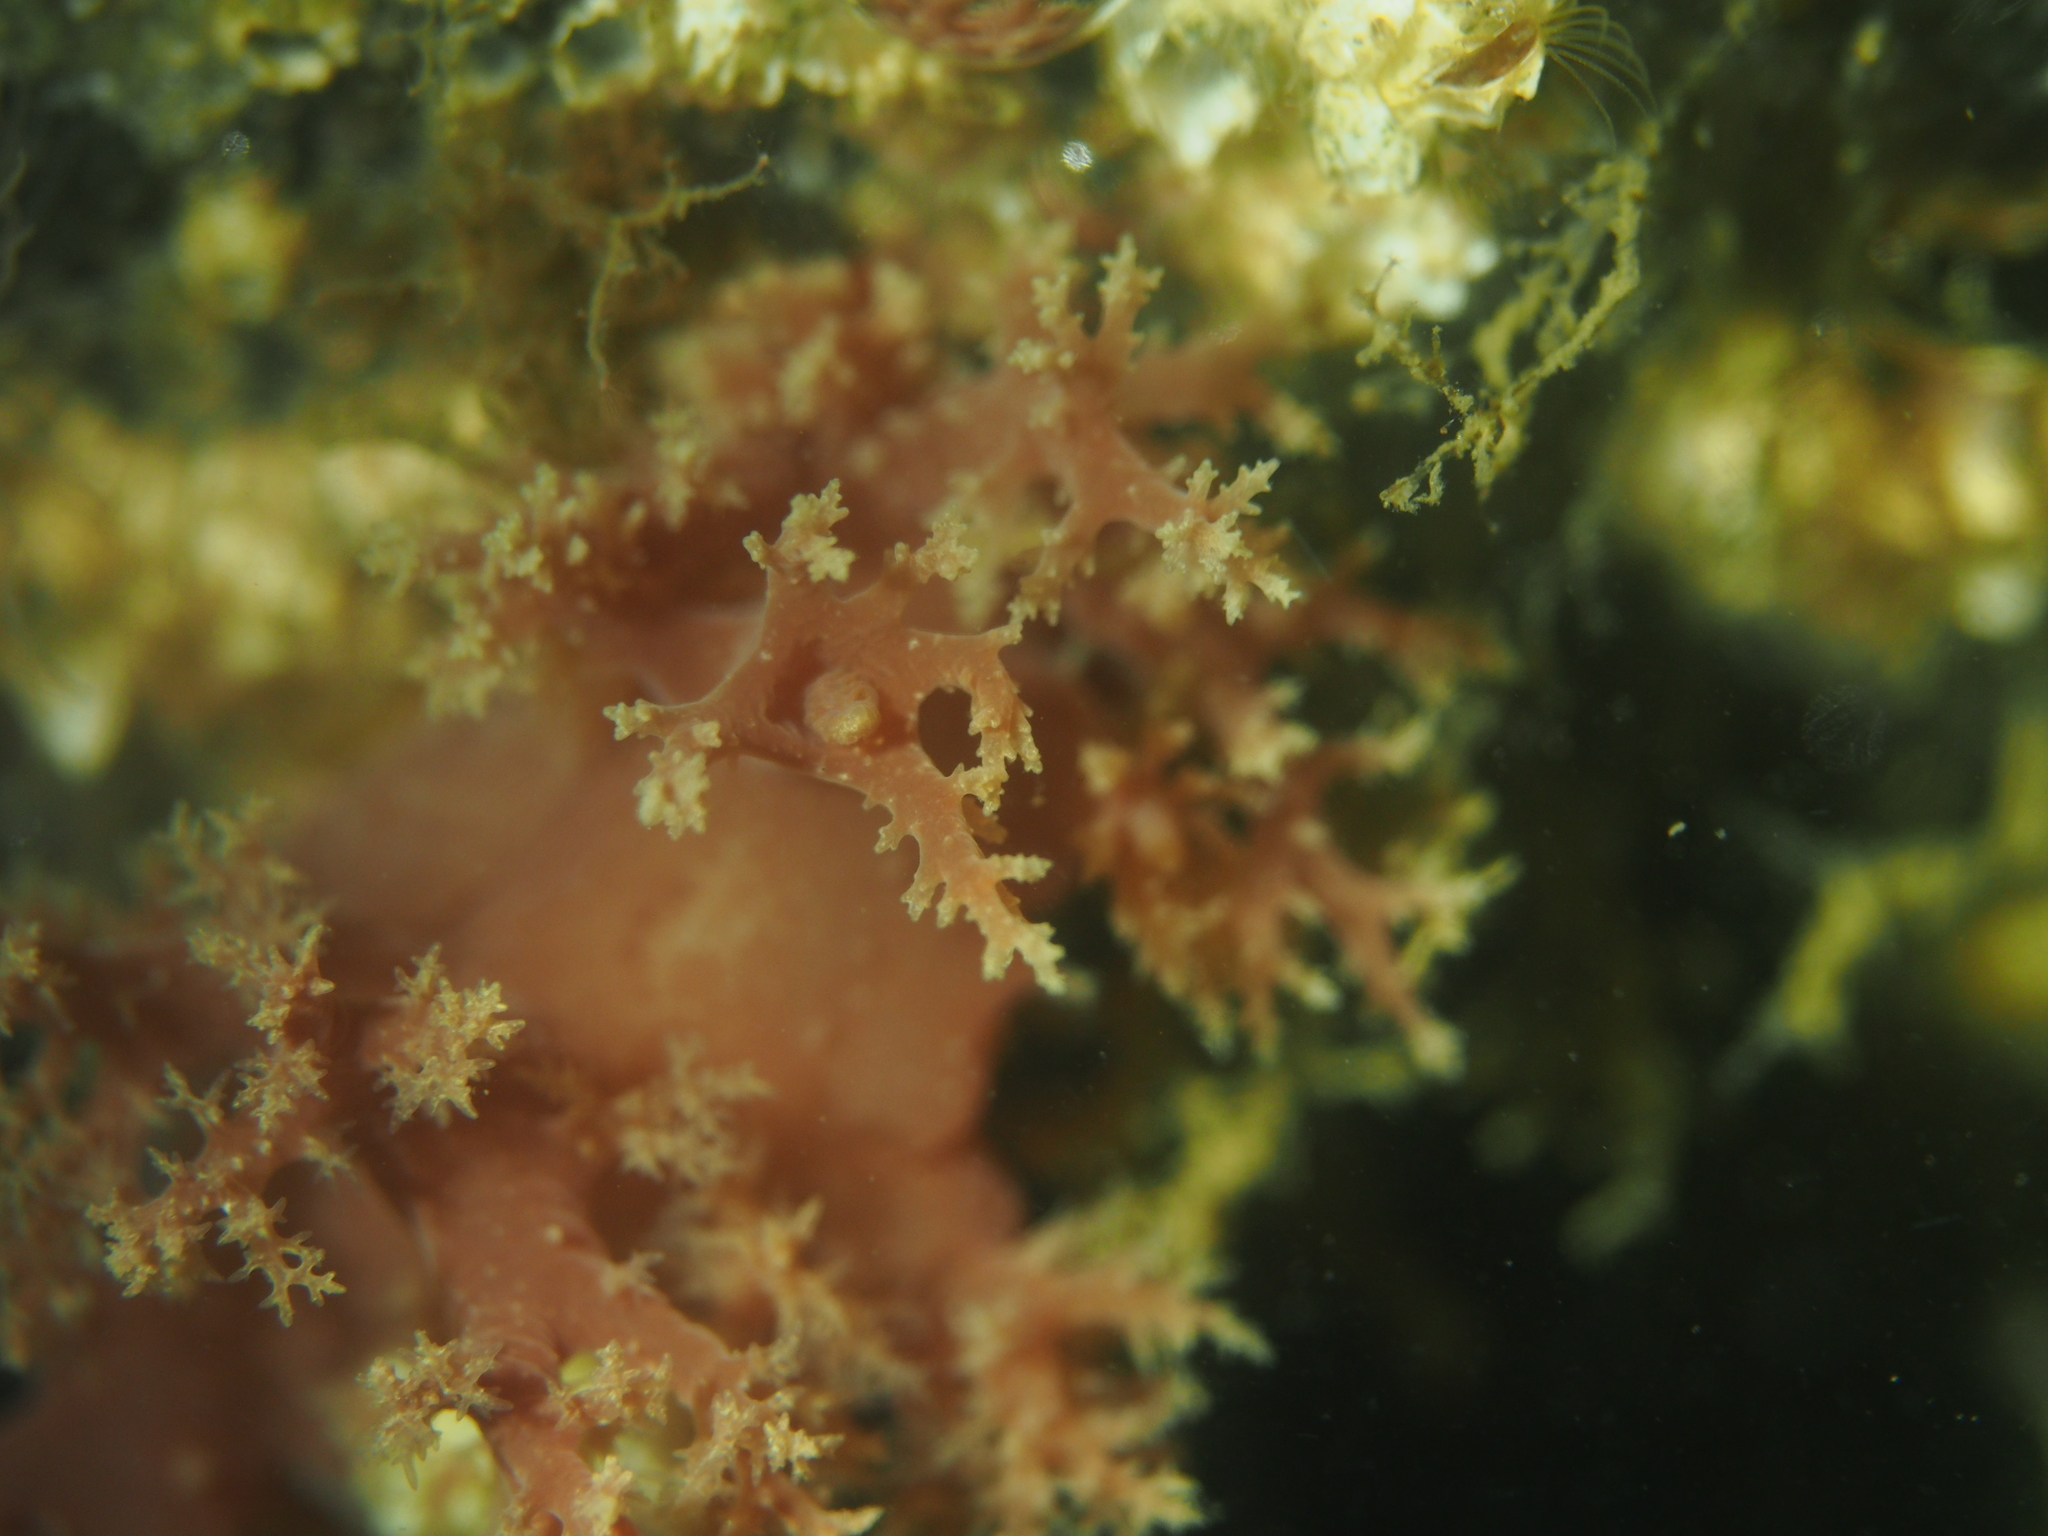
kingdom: Animalia
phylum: Mollusca
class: Gastropoda
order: Nudibranchia
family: Dendronotidae
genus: Dendronotus
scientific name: Dendronotus lacteus
